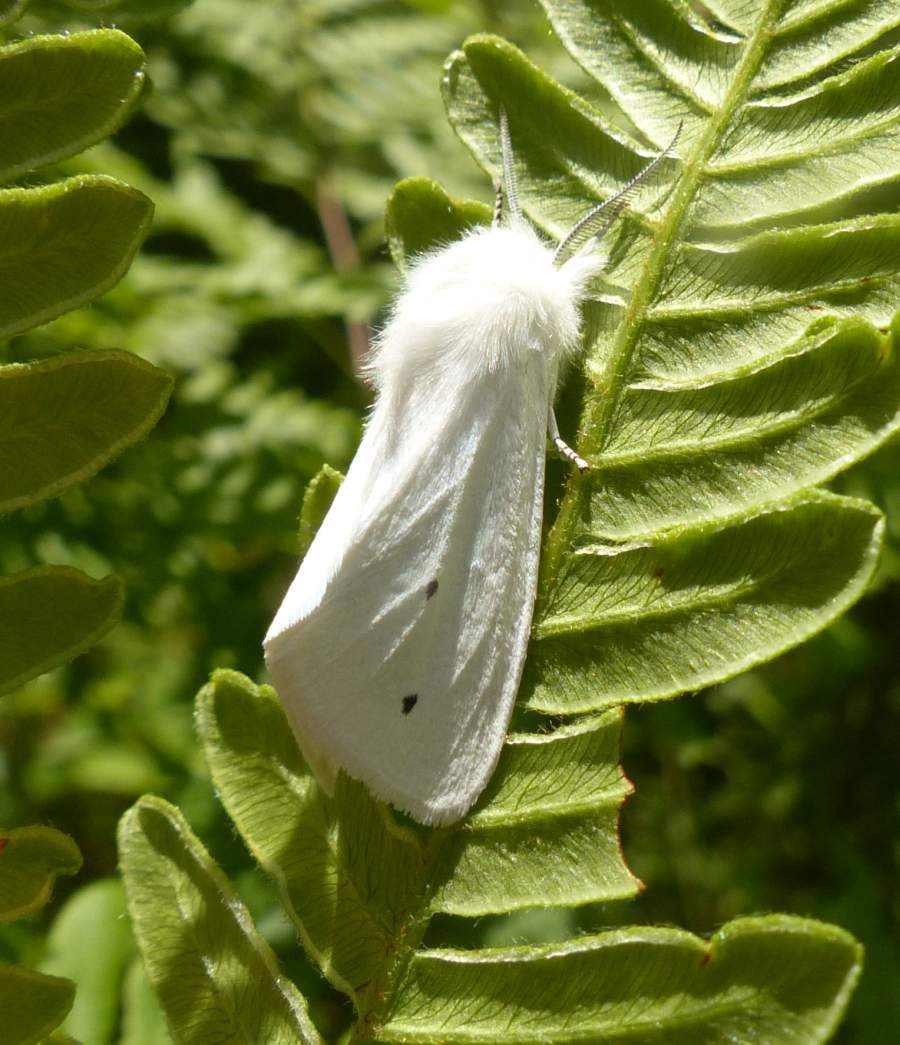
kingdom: Animalia
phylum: Arthropoda
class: Insecta
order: Lepidoptera
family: Erebidae
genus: Spilosoma
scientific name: Spilosoma virginica
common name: Virginia tiger moth
